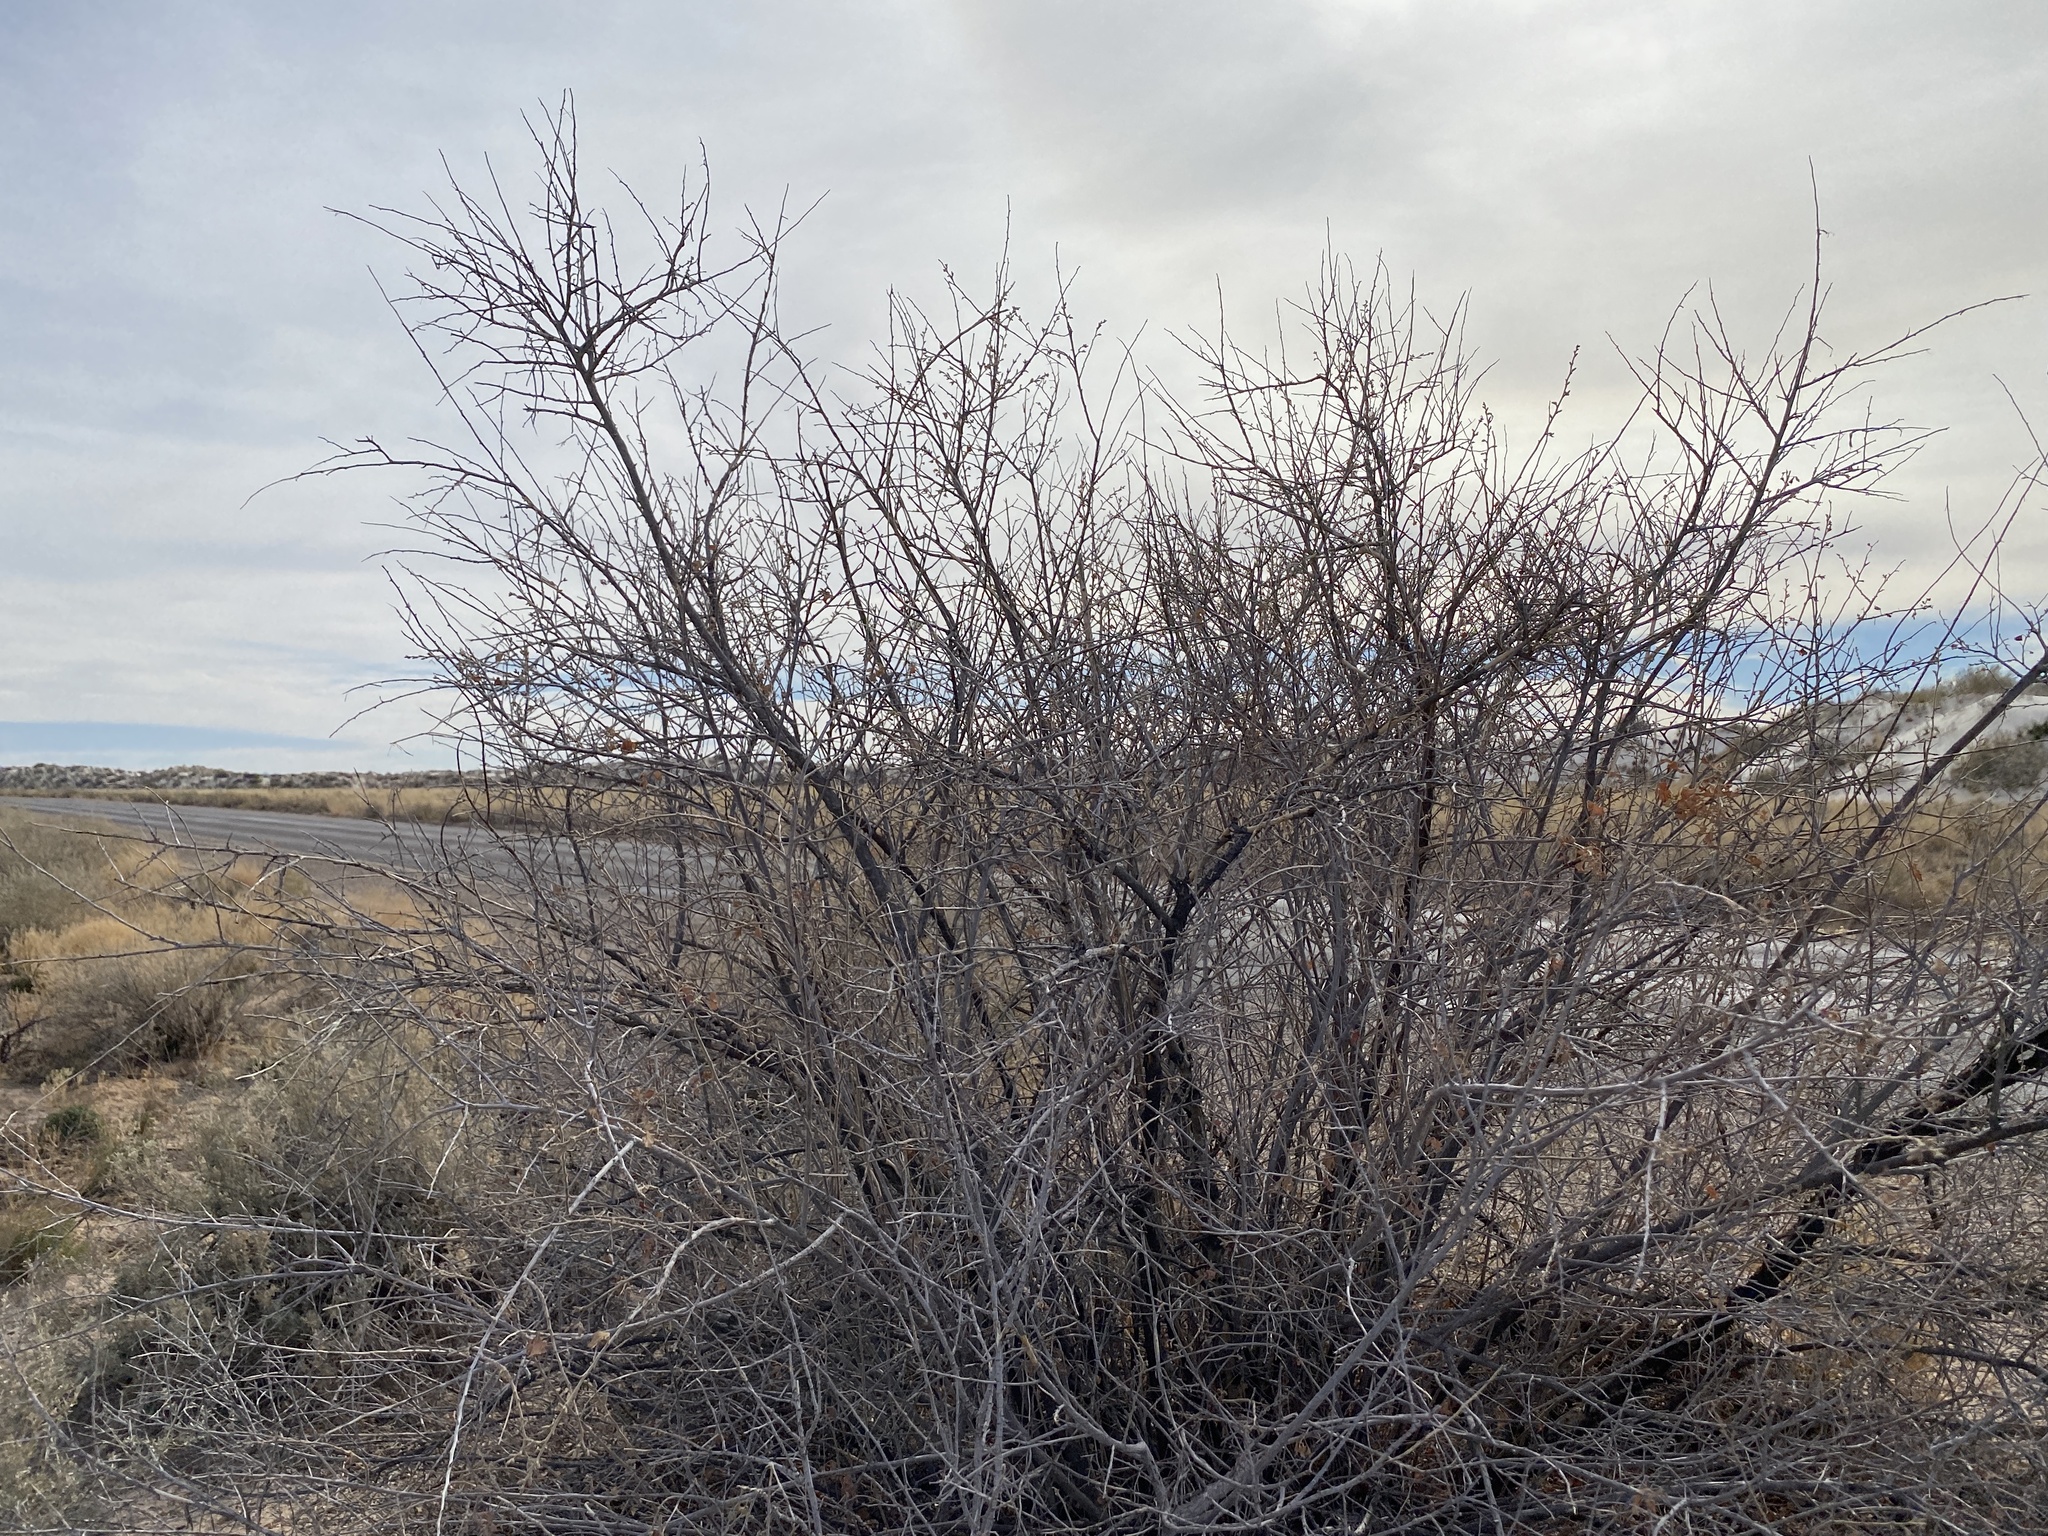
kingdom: Plantae
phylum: Tracheophyta
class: Magnoliopsida
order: Sapindales
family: Anacardiaceae
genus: Rhus
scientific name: Rhus trilobata
